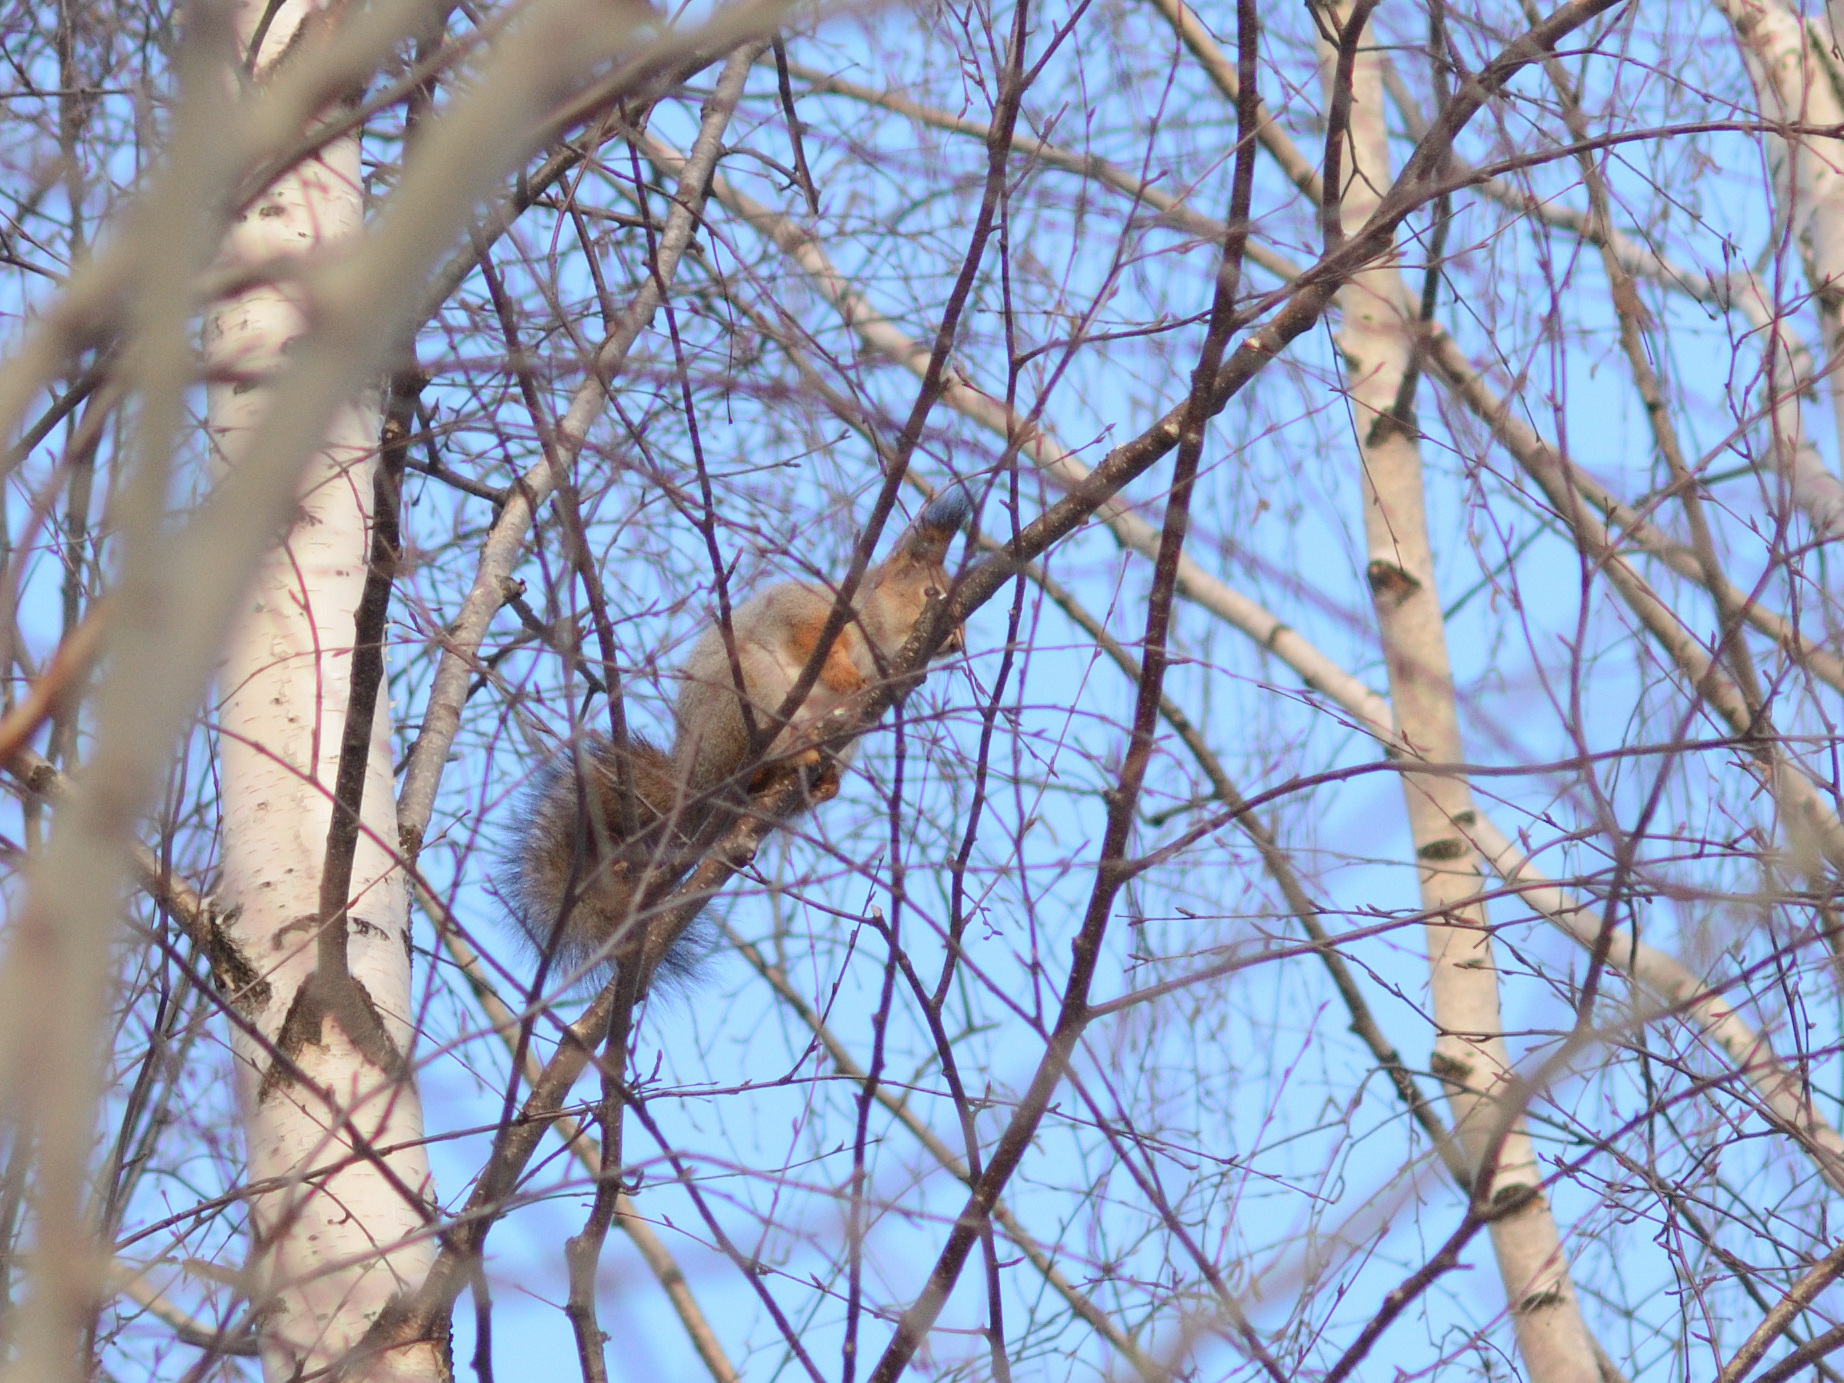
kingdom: Animalia
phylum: Chordata
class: Mammalia
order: Rodentia
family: Sciuridae
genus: Sciurus
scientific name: Sciurus vulgaris
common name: Eurasian red squirrel
